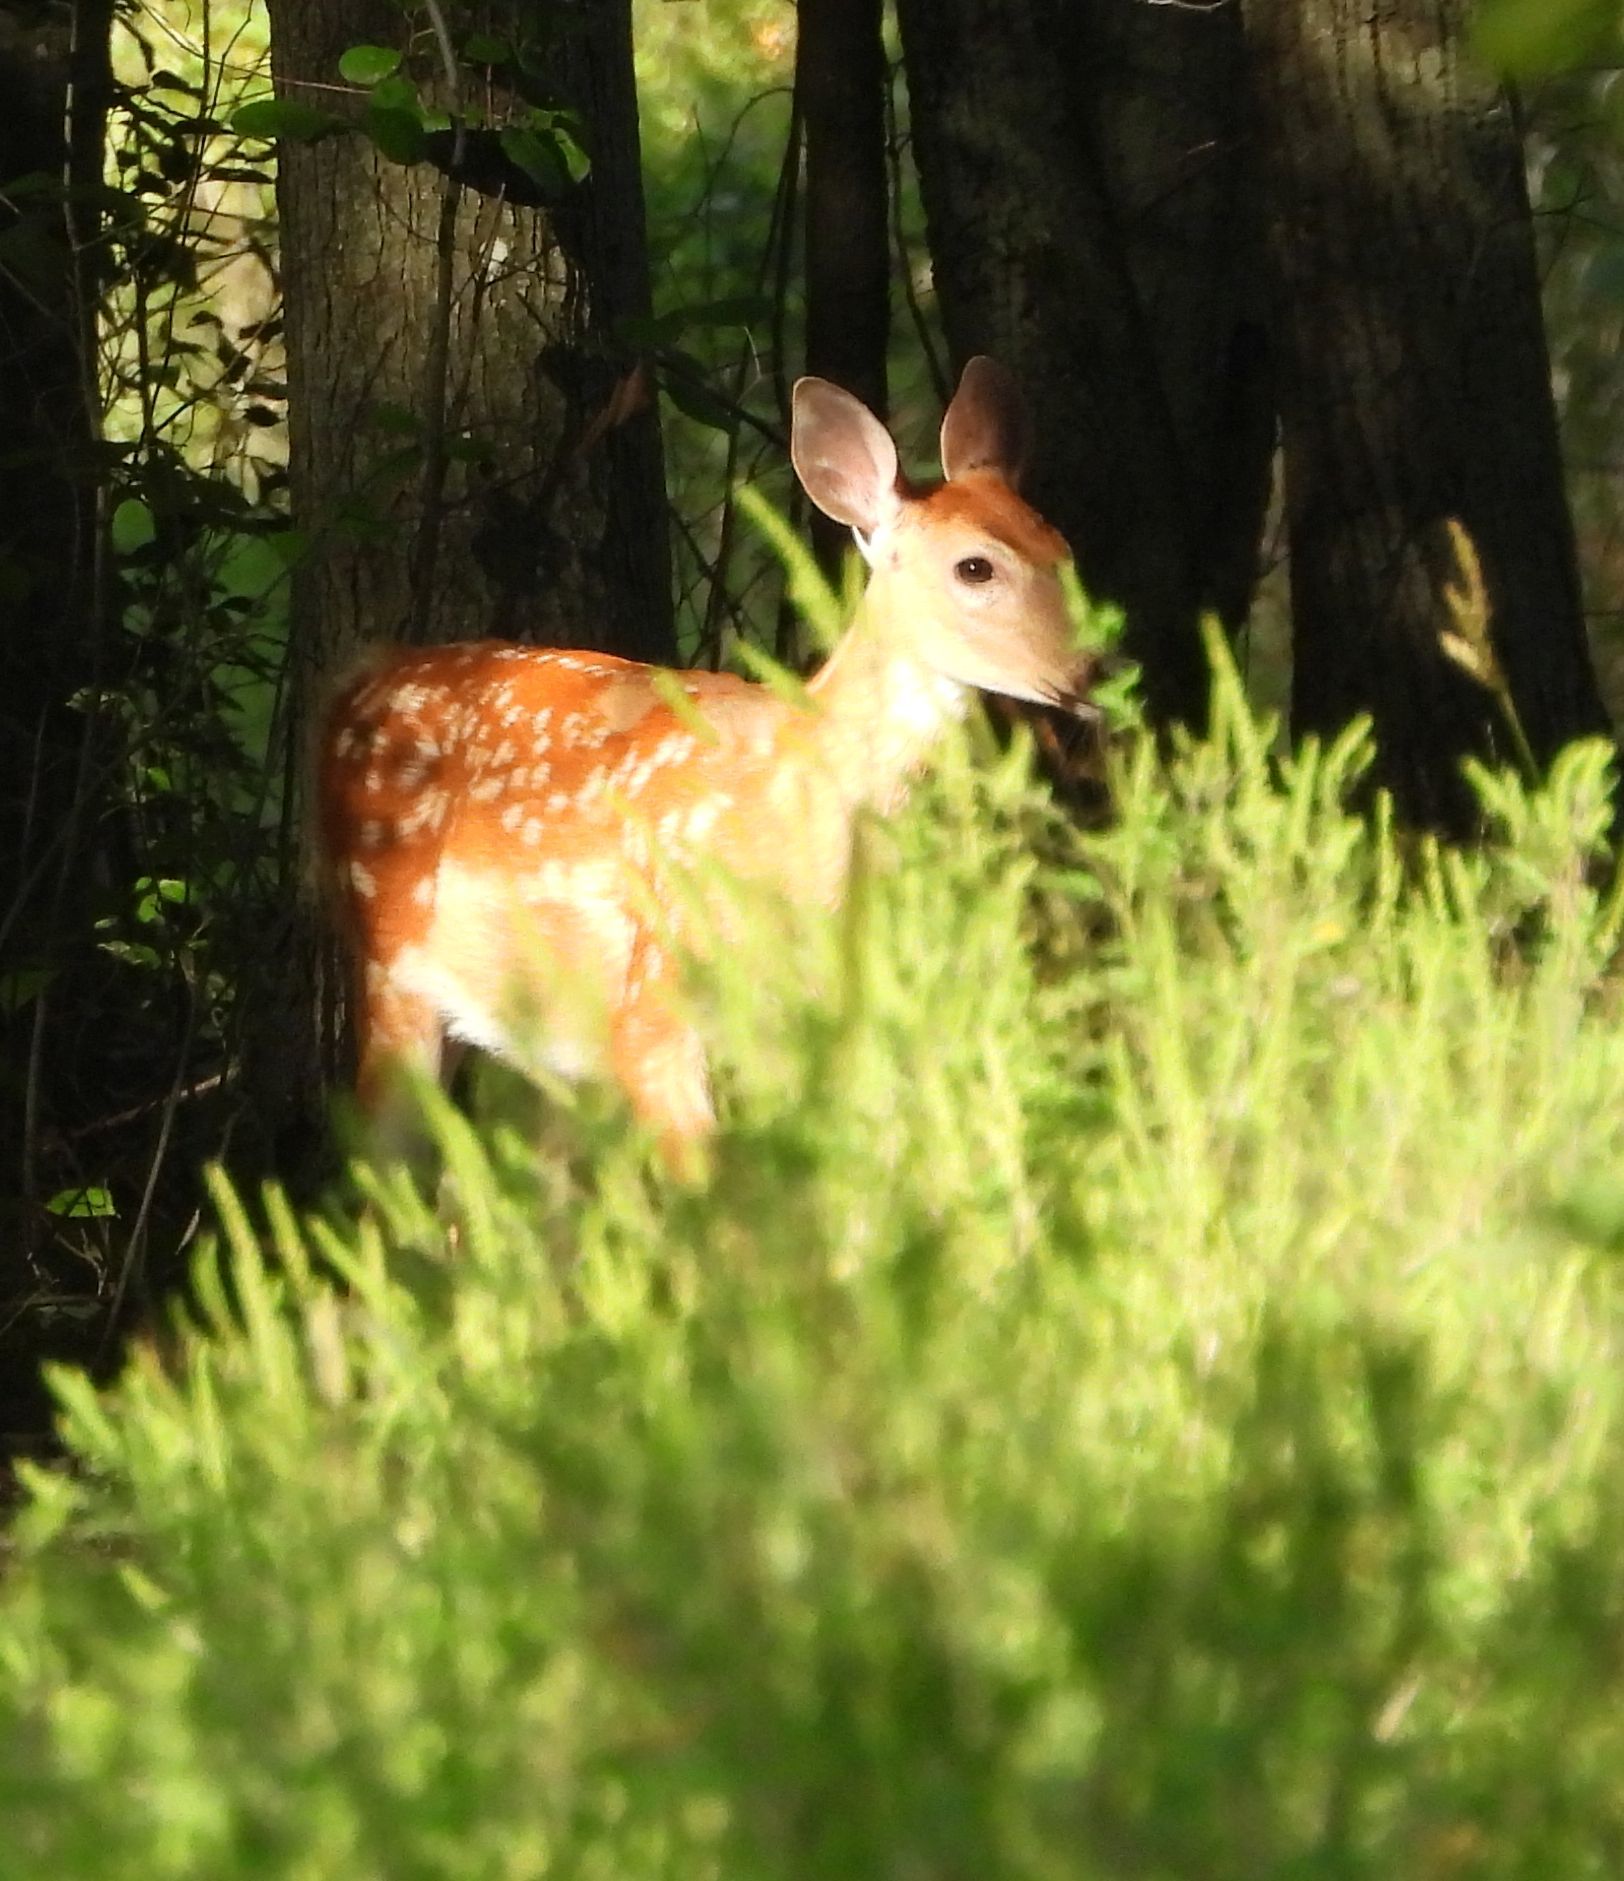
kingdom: Animalia
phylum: Chordata
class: Mammalia
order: Artiodactyla
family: Cervidae
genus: Odocoileus
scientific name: Odocoileus virginianus
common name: White-tailed deer
